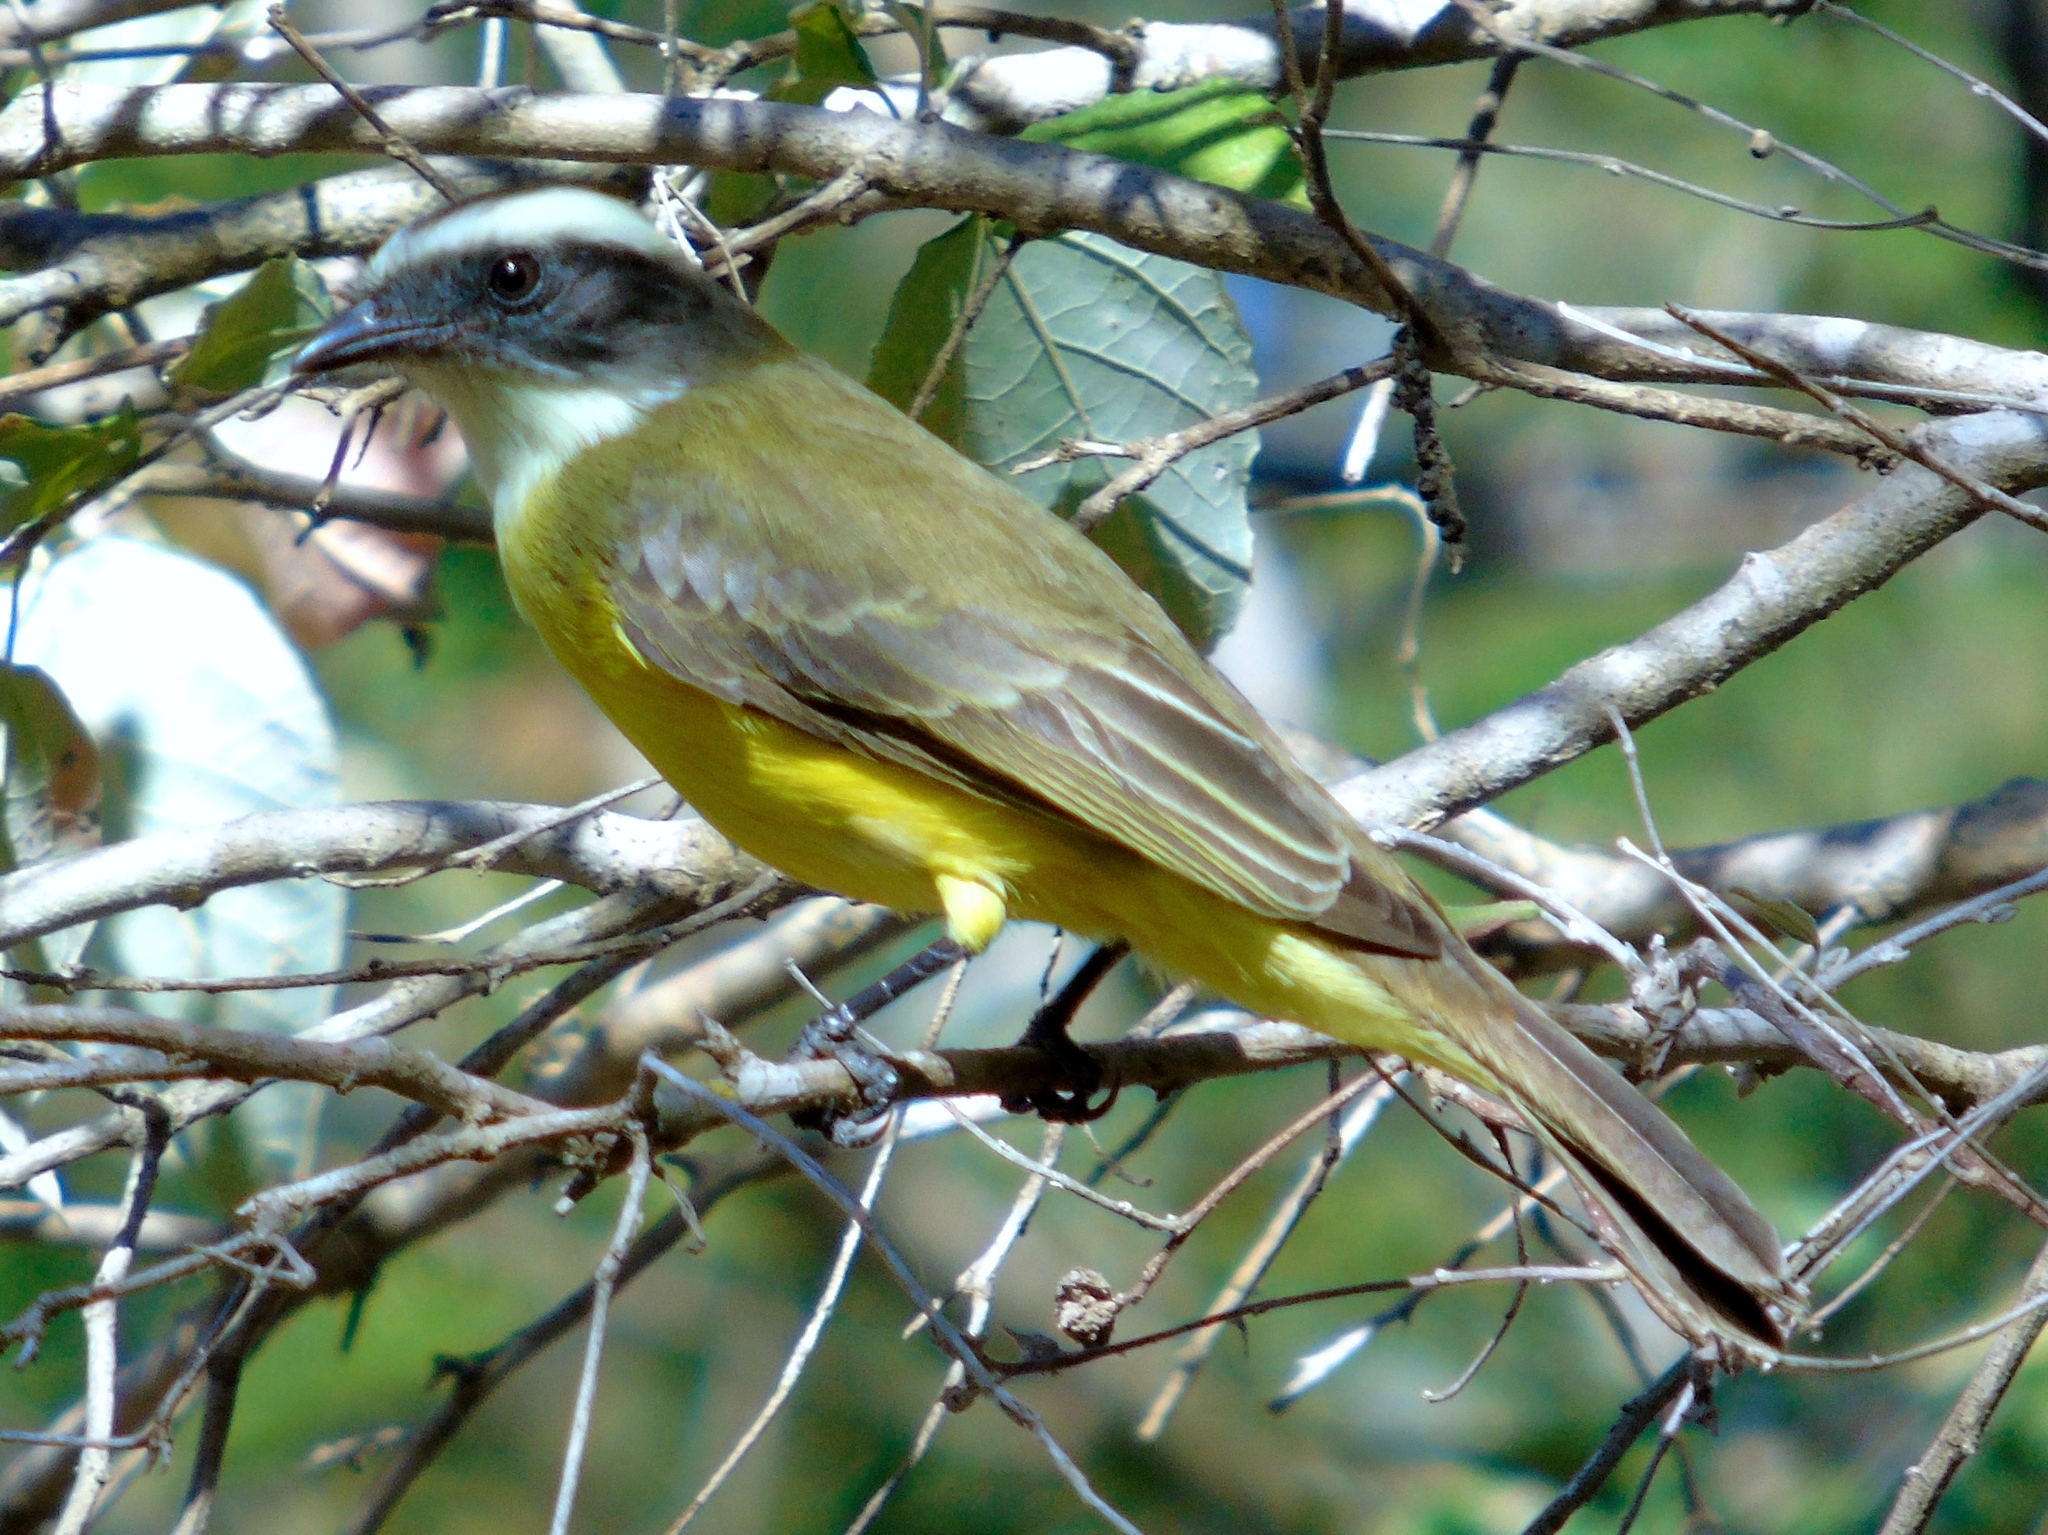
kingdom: Animalia
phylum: Chordata
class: Aves
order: Passeriformes
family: Tyrannidae
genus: Myiozetetes
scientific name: Myiozetetes similis
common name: Social flycatcher
